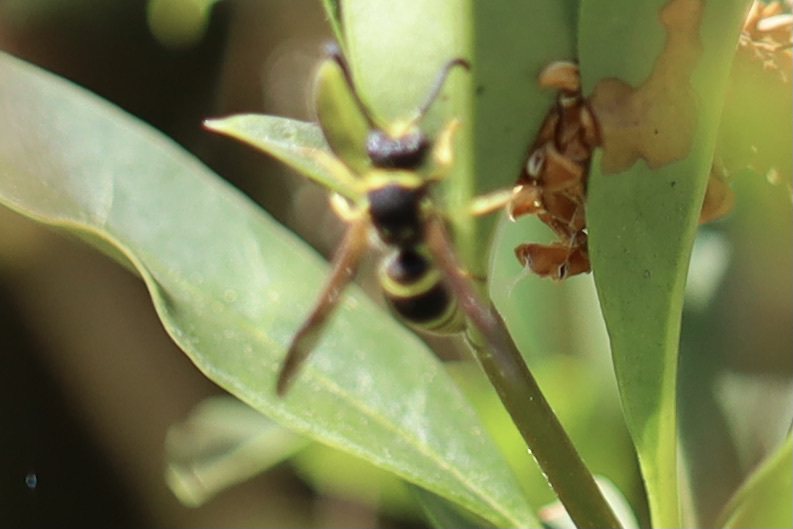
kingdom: Animalia
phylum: Arthropoda
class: Insecta
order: Hymenoptera
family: Vespidae
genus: Ancistrocerus
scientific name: Ancistrocerus
